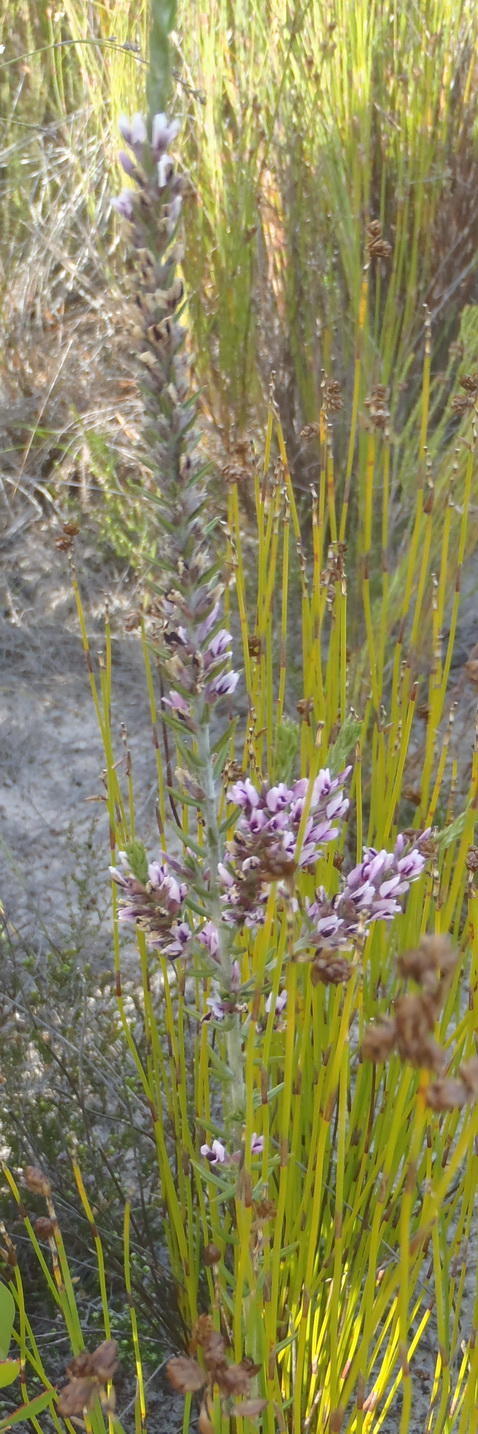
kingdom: Plantae
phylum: Tracheophyta
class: Magnoliopsida
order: Fabales
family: Fabaceae
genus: Amphithalea
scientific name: Amphithalea ericifolia
